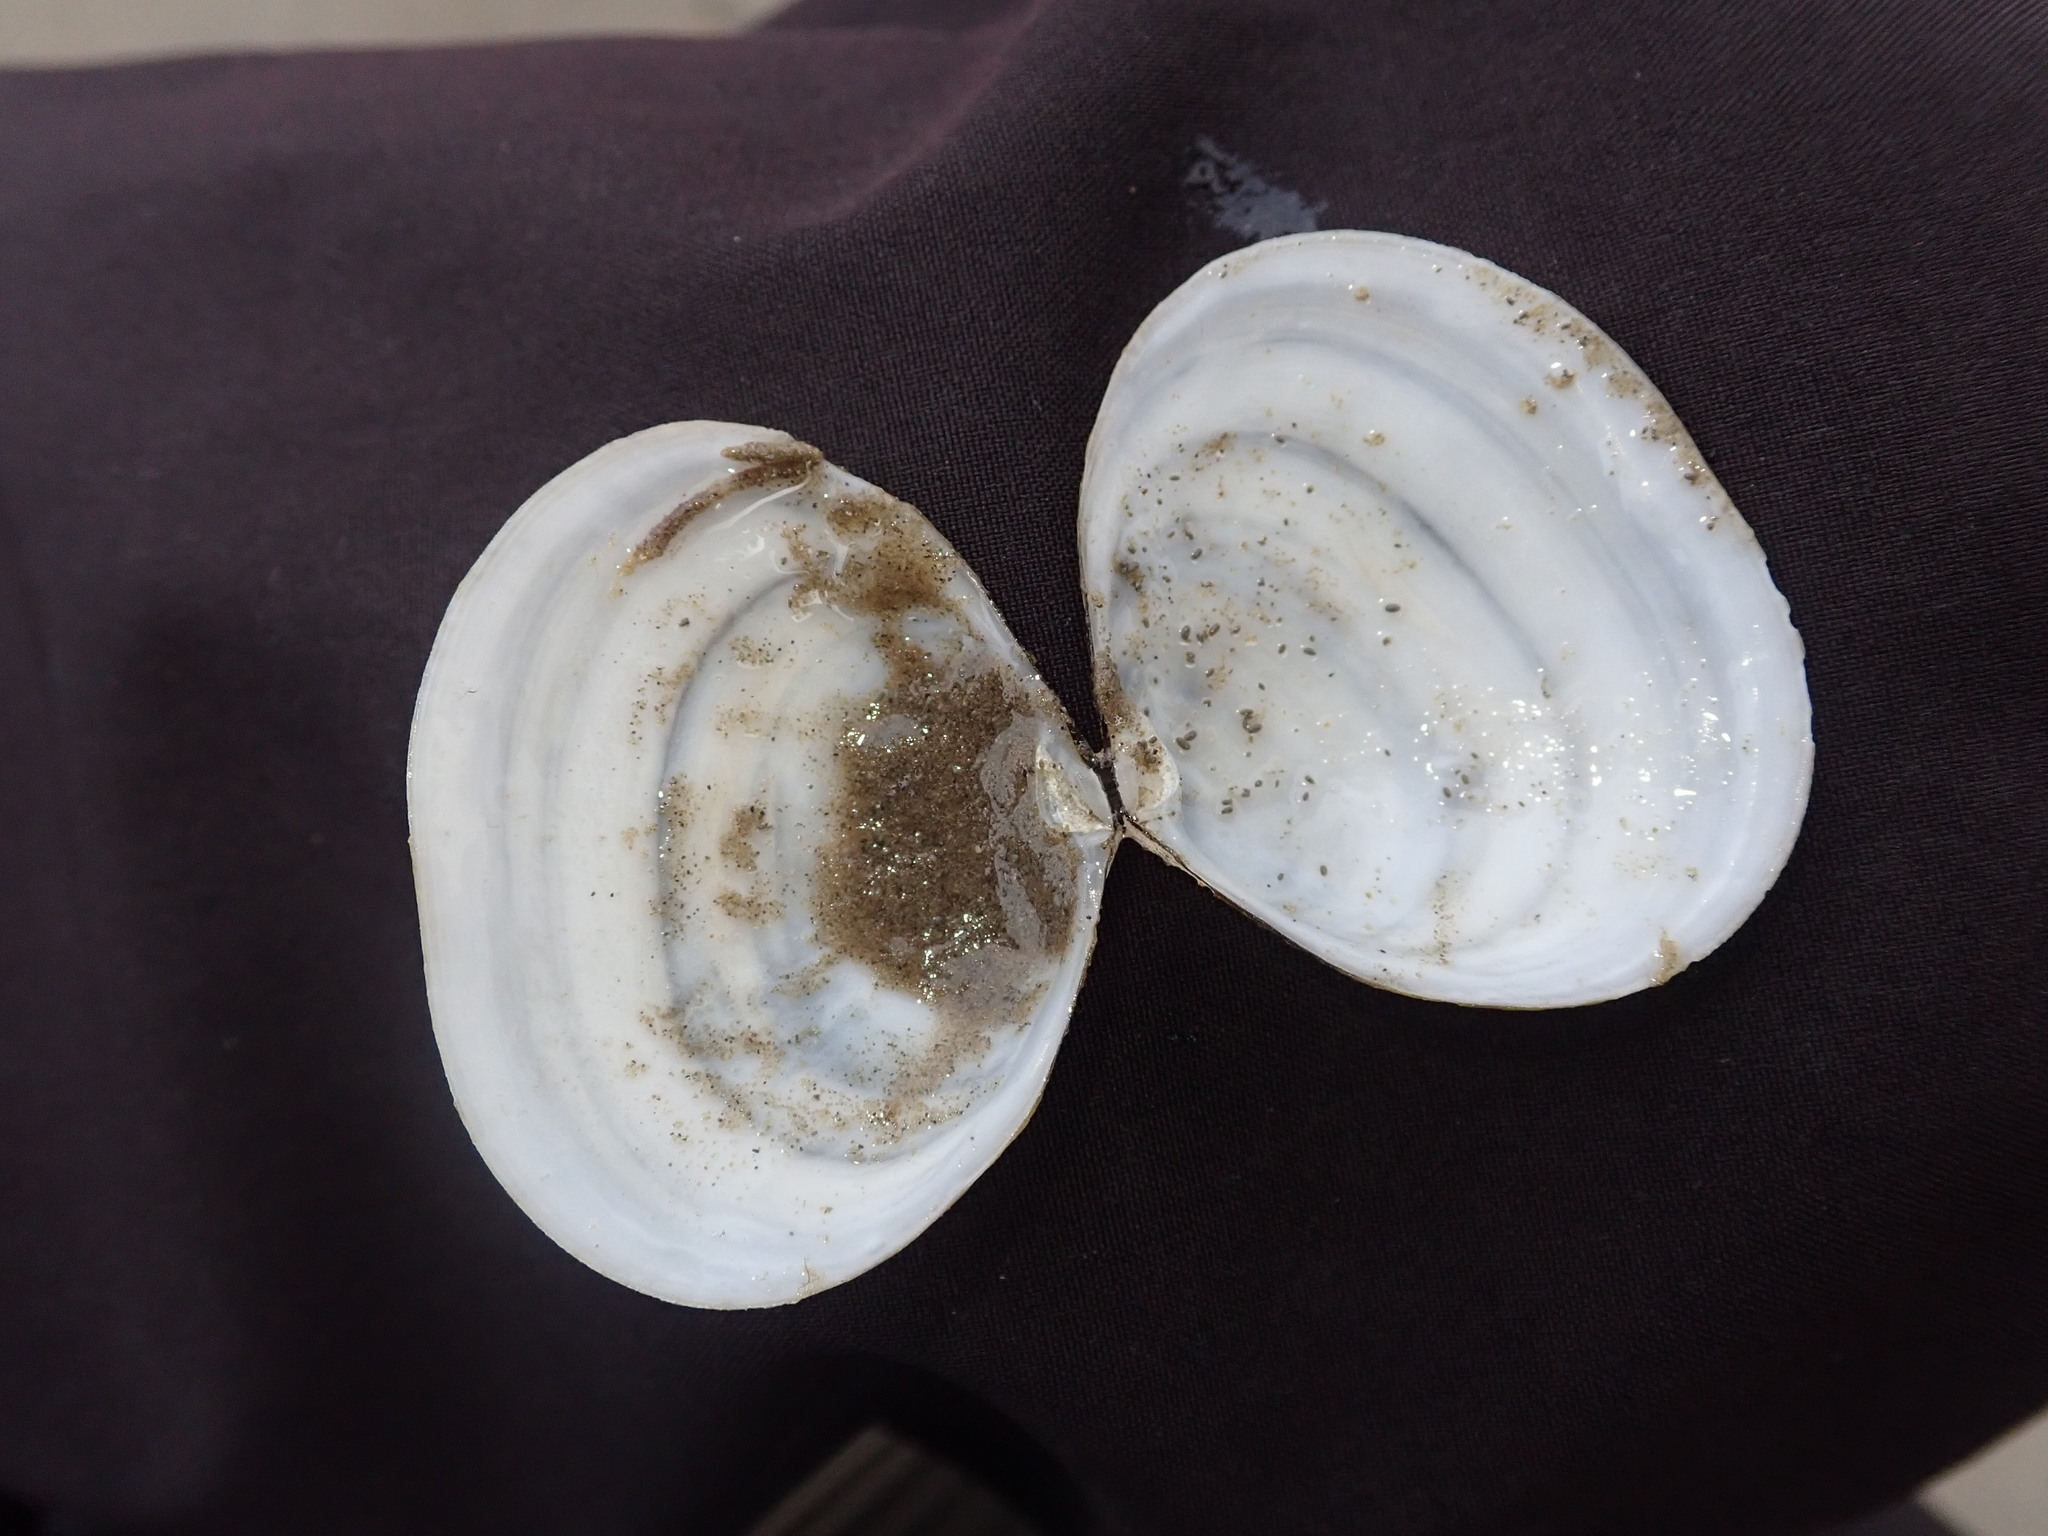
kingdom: Animalia
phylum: Mollusca
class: Bivalvia
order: Cardiida
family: Tellinidae
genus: Macoma
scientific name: Macoma balthica
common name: Baltic tellin
